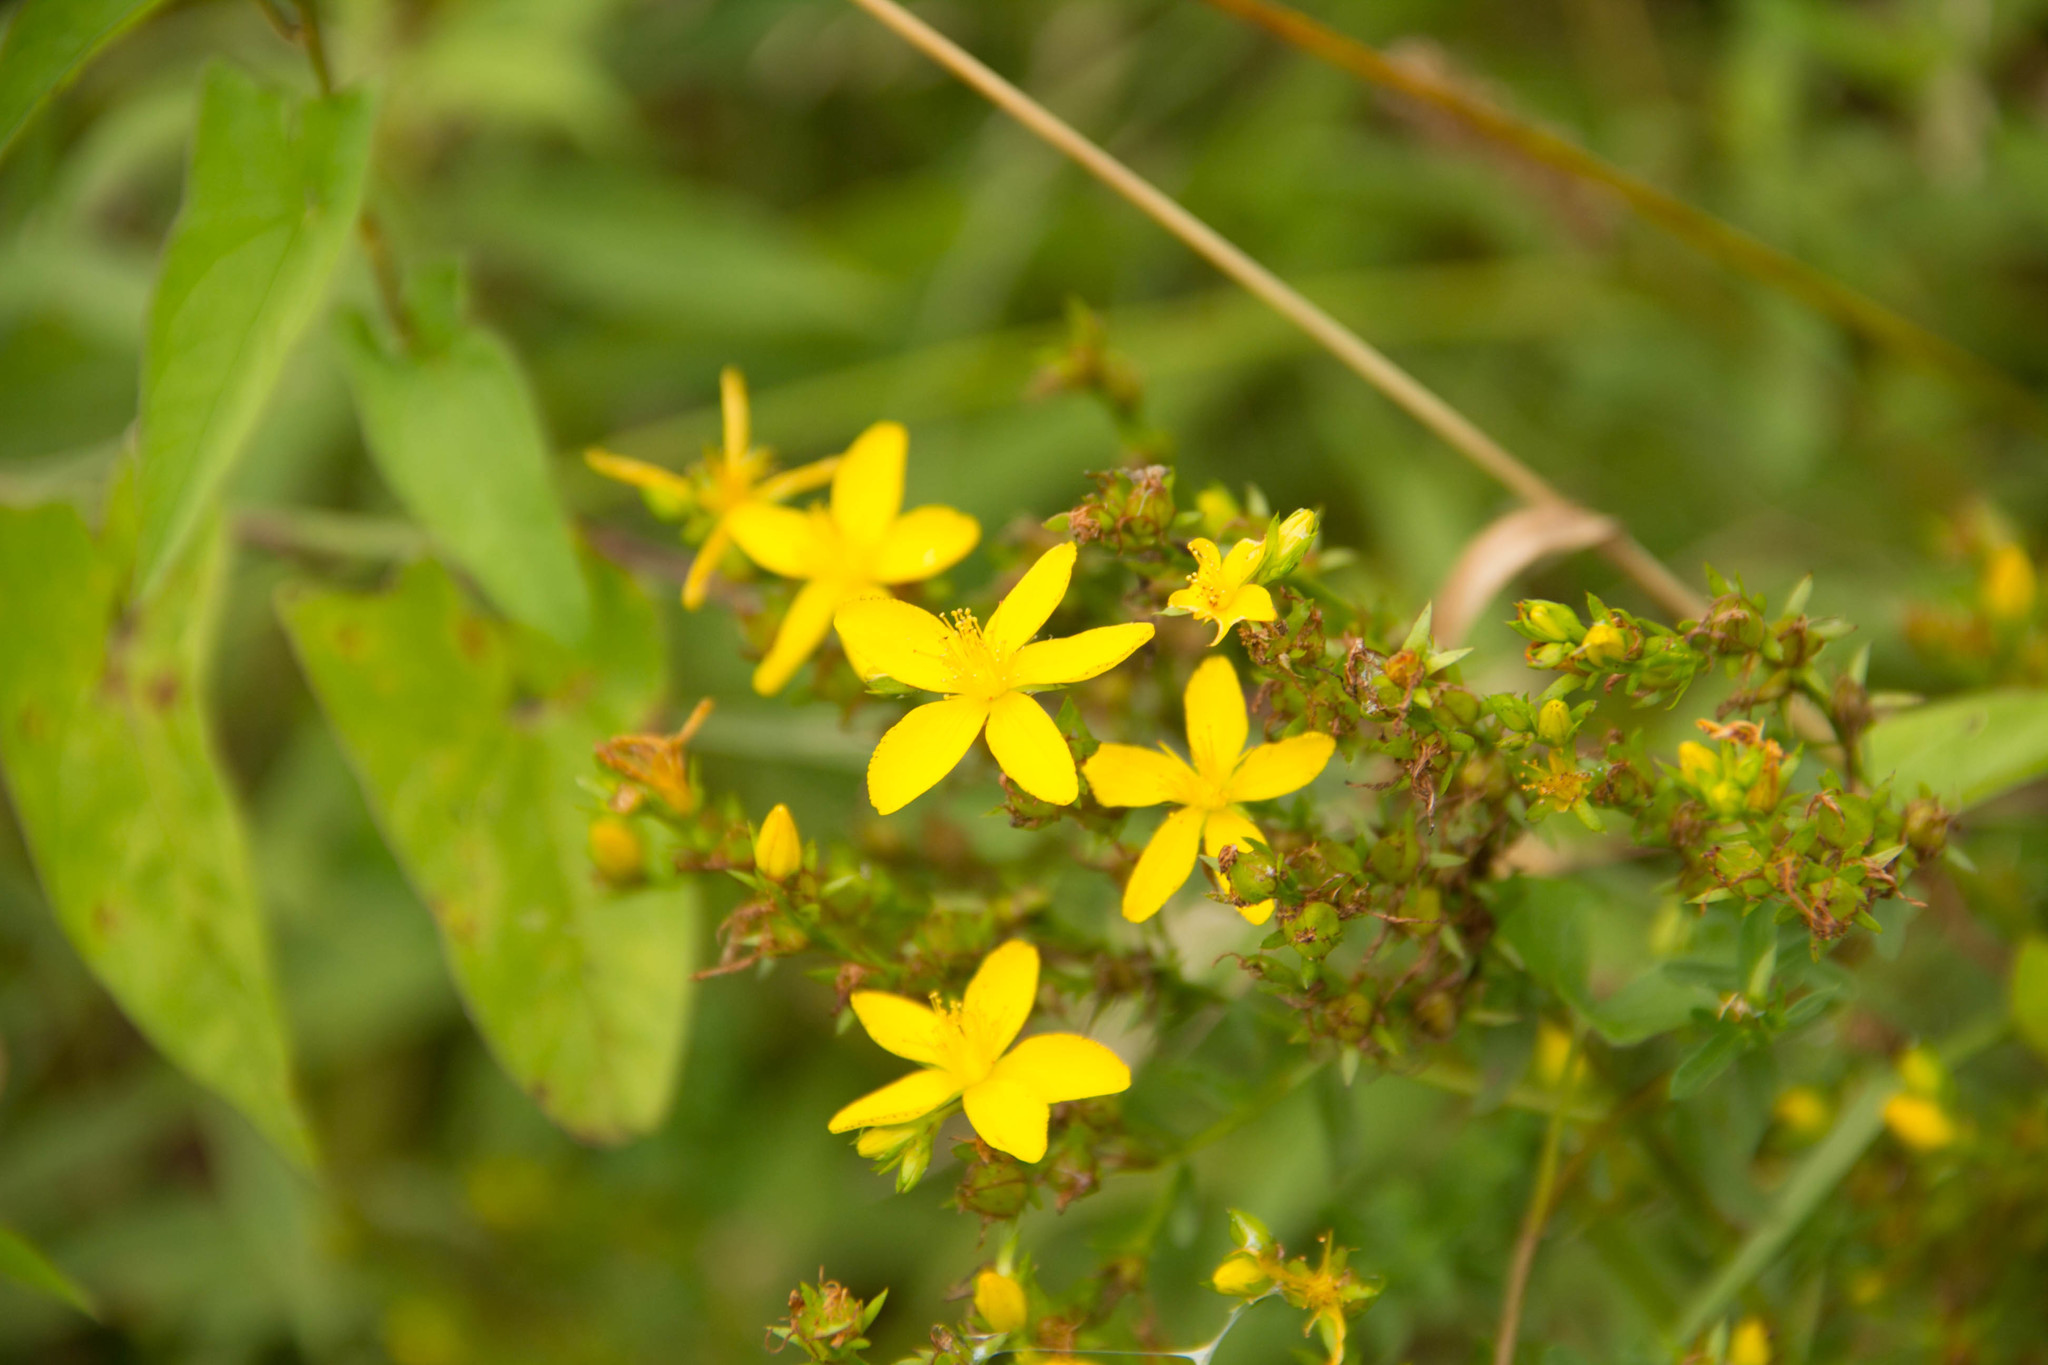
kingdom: Plantae
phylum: Tracheophyta
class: Magnoliopsida
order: Malpighiales
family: Hypericaceae
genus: Hypericum
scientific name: Hypericum perforatum
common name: Common st. johnswort
